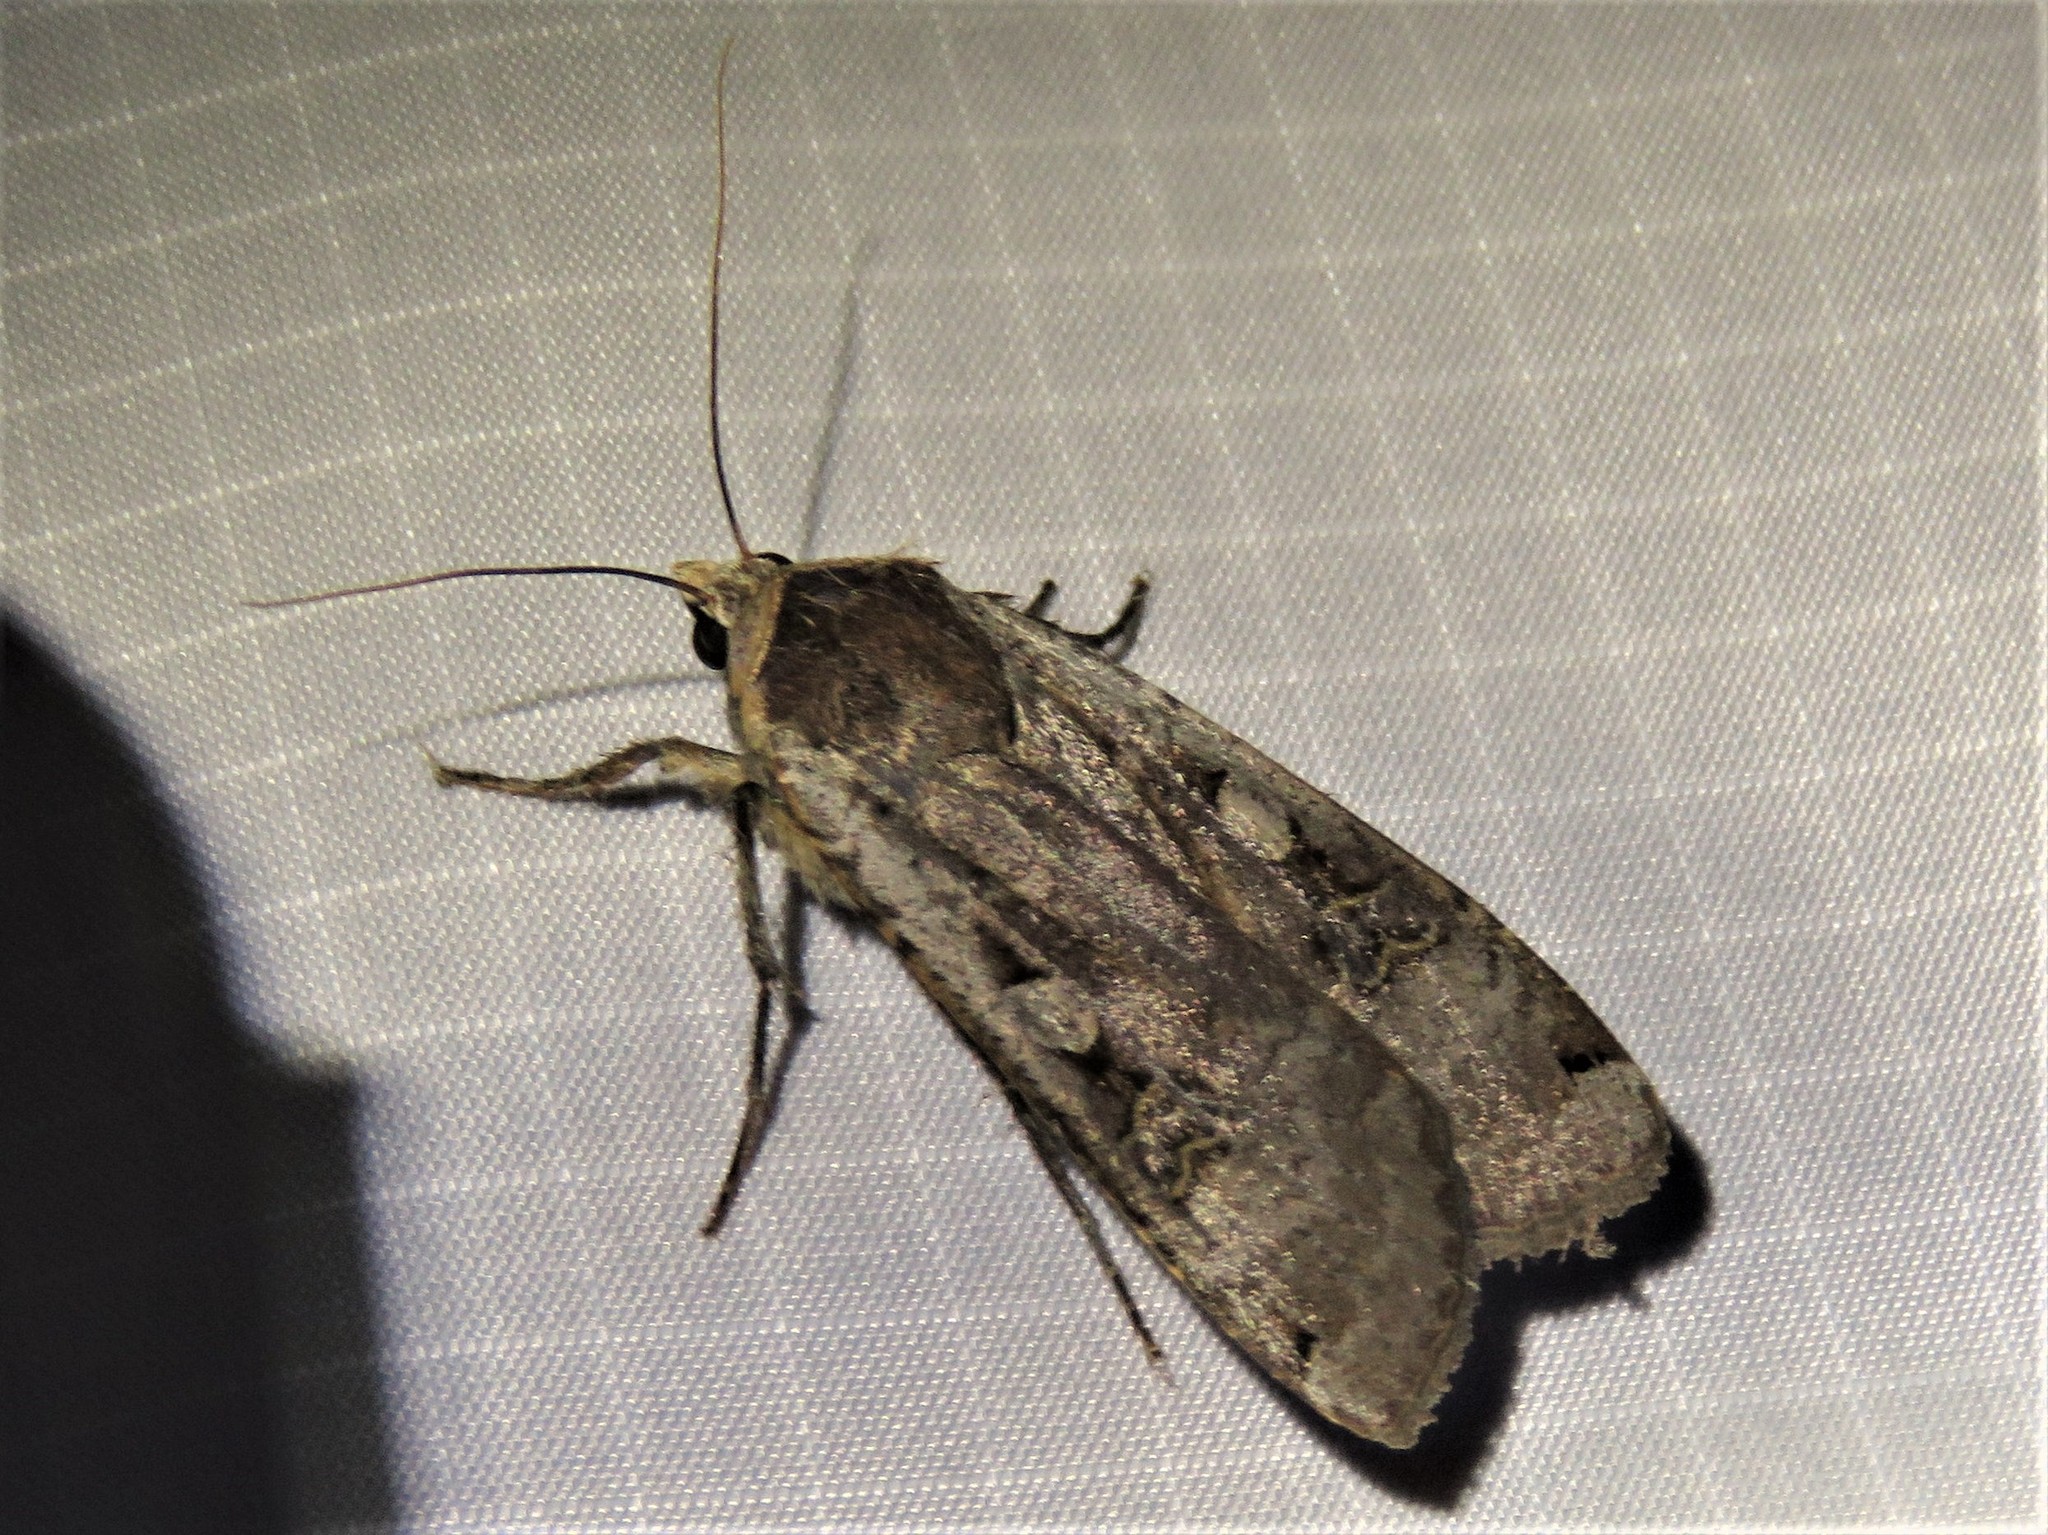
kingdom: Animalia
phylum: Arthropoda
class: Insecta
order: Lepidoptera
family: Noctuidae
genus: Noctua
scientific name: Noctua pronuba
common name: Large yellow underwing
